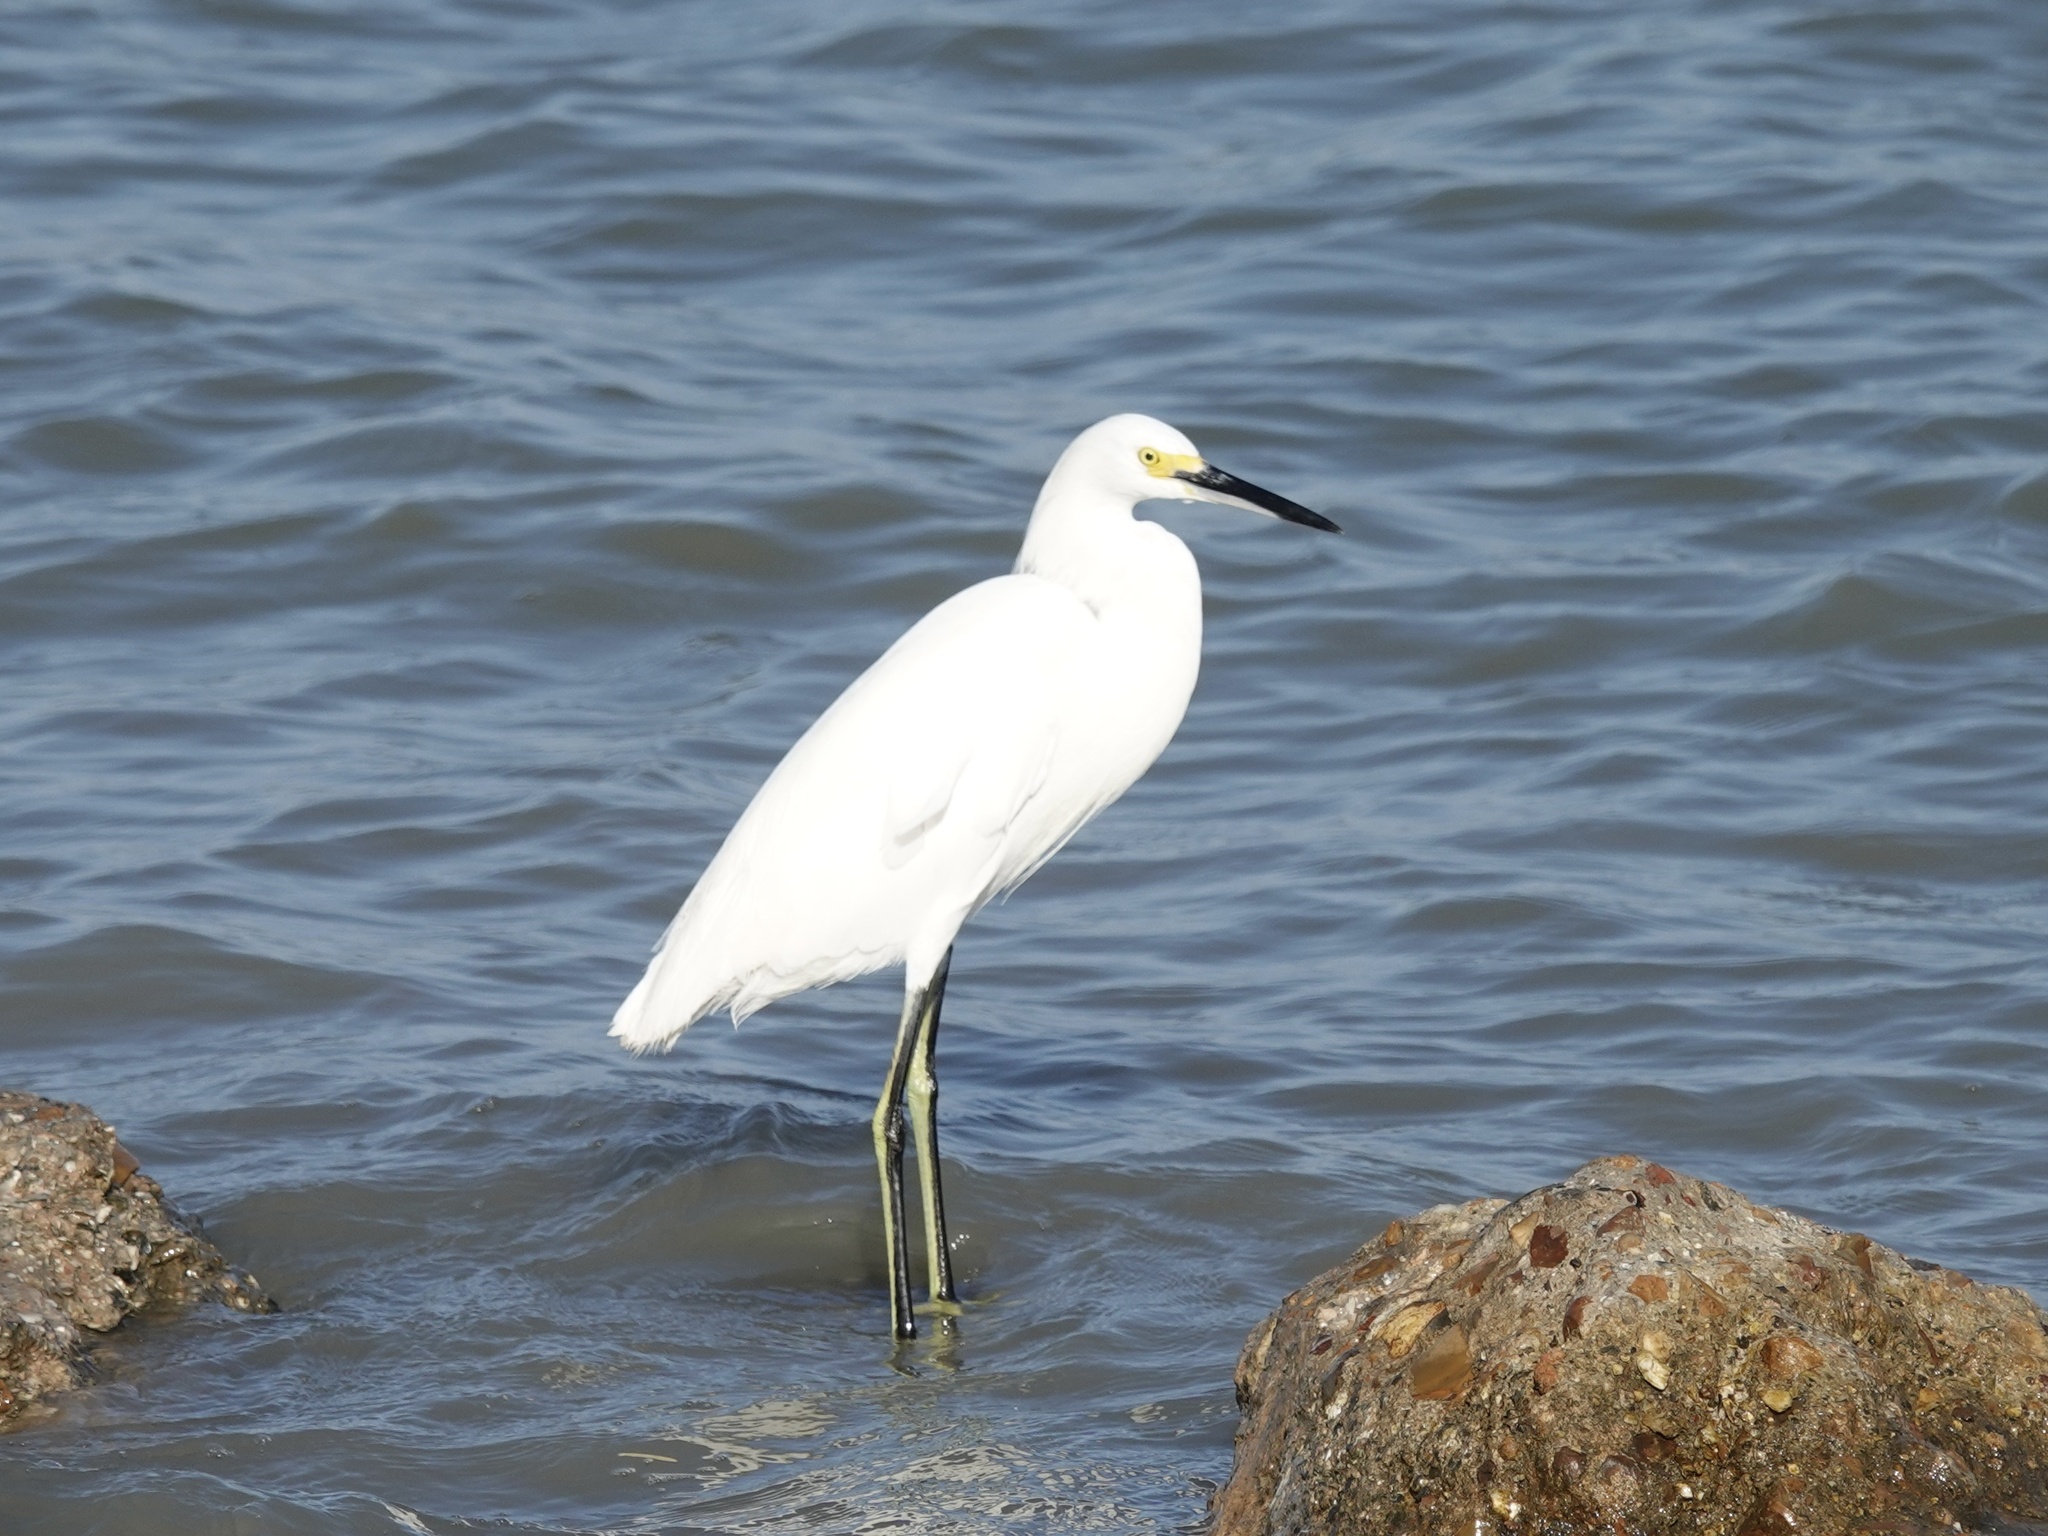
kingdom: Animalia
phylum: Chordata
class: Aves
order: Pelecaniformes
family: Ardeidae
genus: Egretta
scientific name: Egretta thula
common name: Snowy egret
